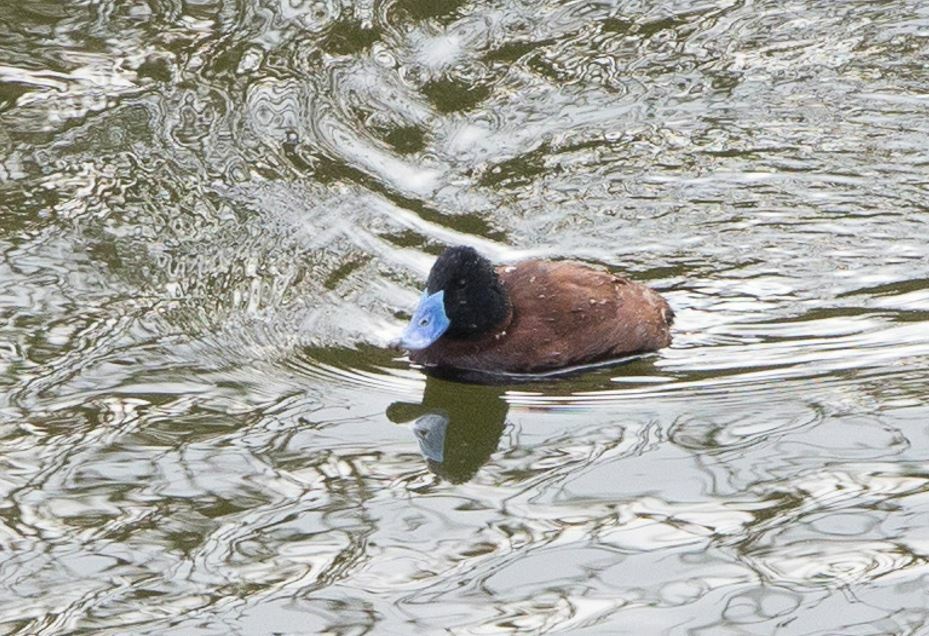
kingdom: Animalia
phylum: Chordata
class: Aves
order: Anseriformes
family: Anatidae
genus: Oxyura
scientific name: Oxyura ferruginea
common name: Andean duck
